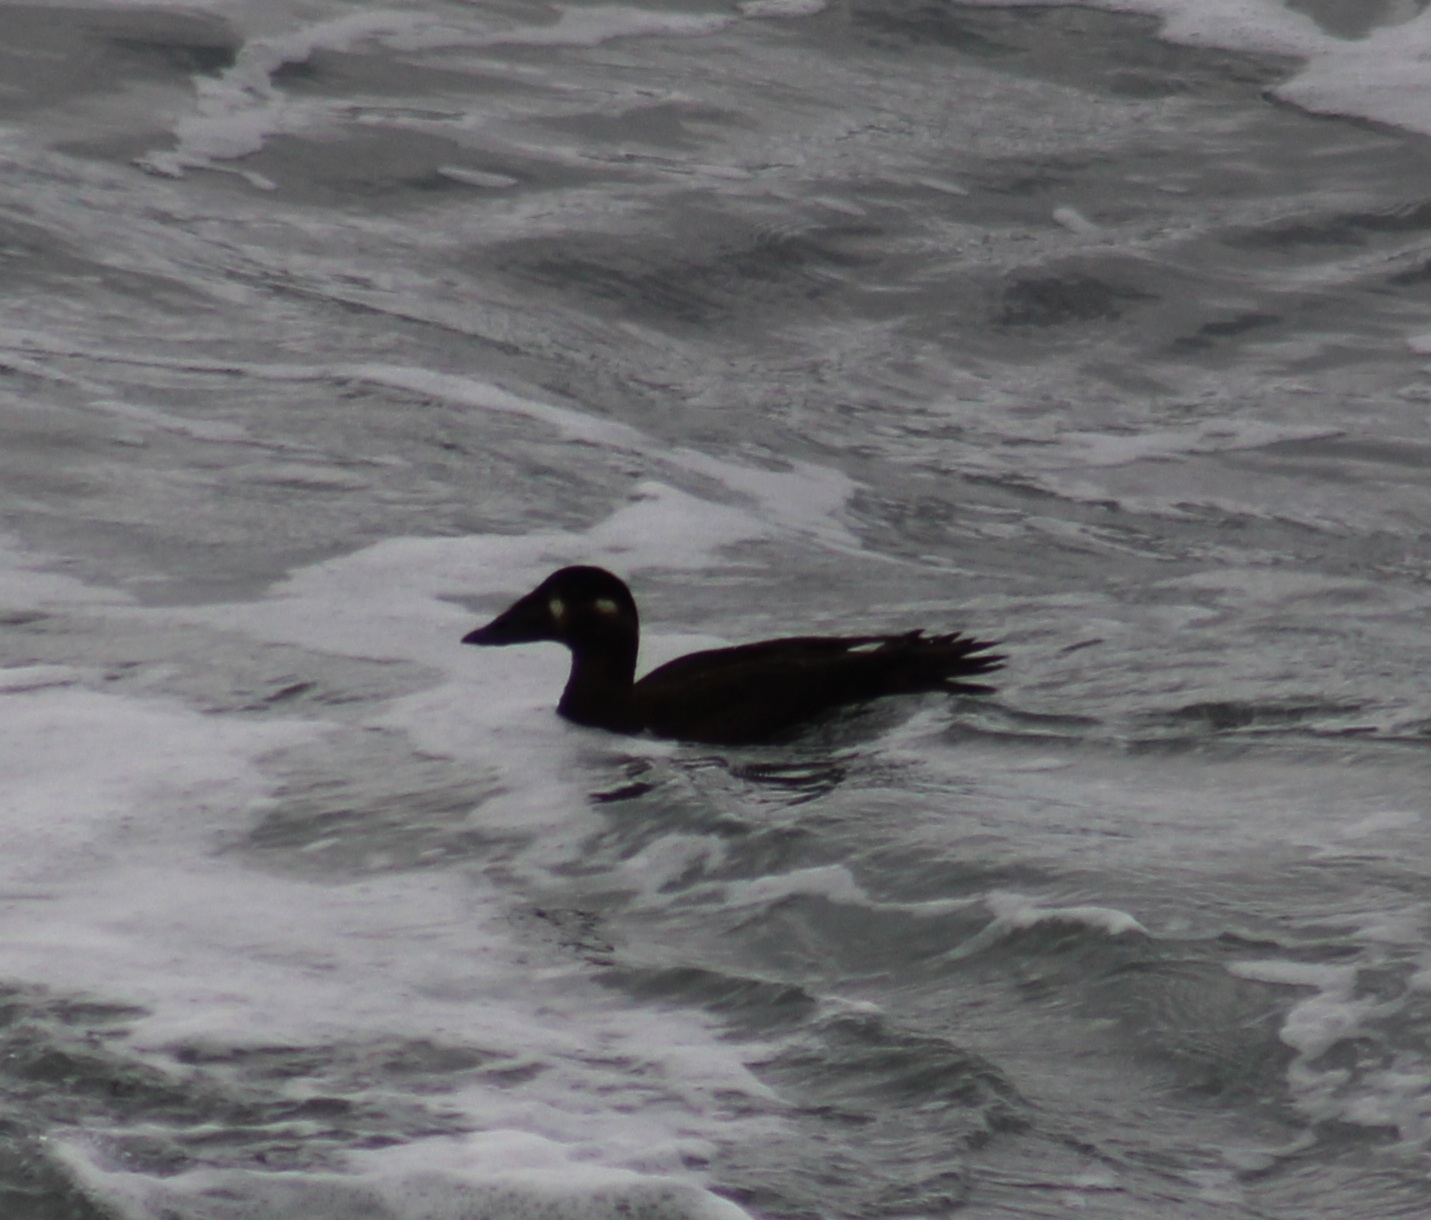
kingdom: Animalia
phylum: Chordata
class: Aves
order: Anseriformes
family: Anatidae
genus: Melanitta
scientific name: Melanitta perspicillata
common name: Surf scoter
